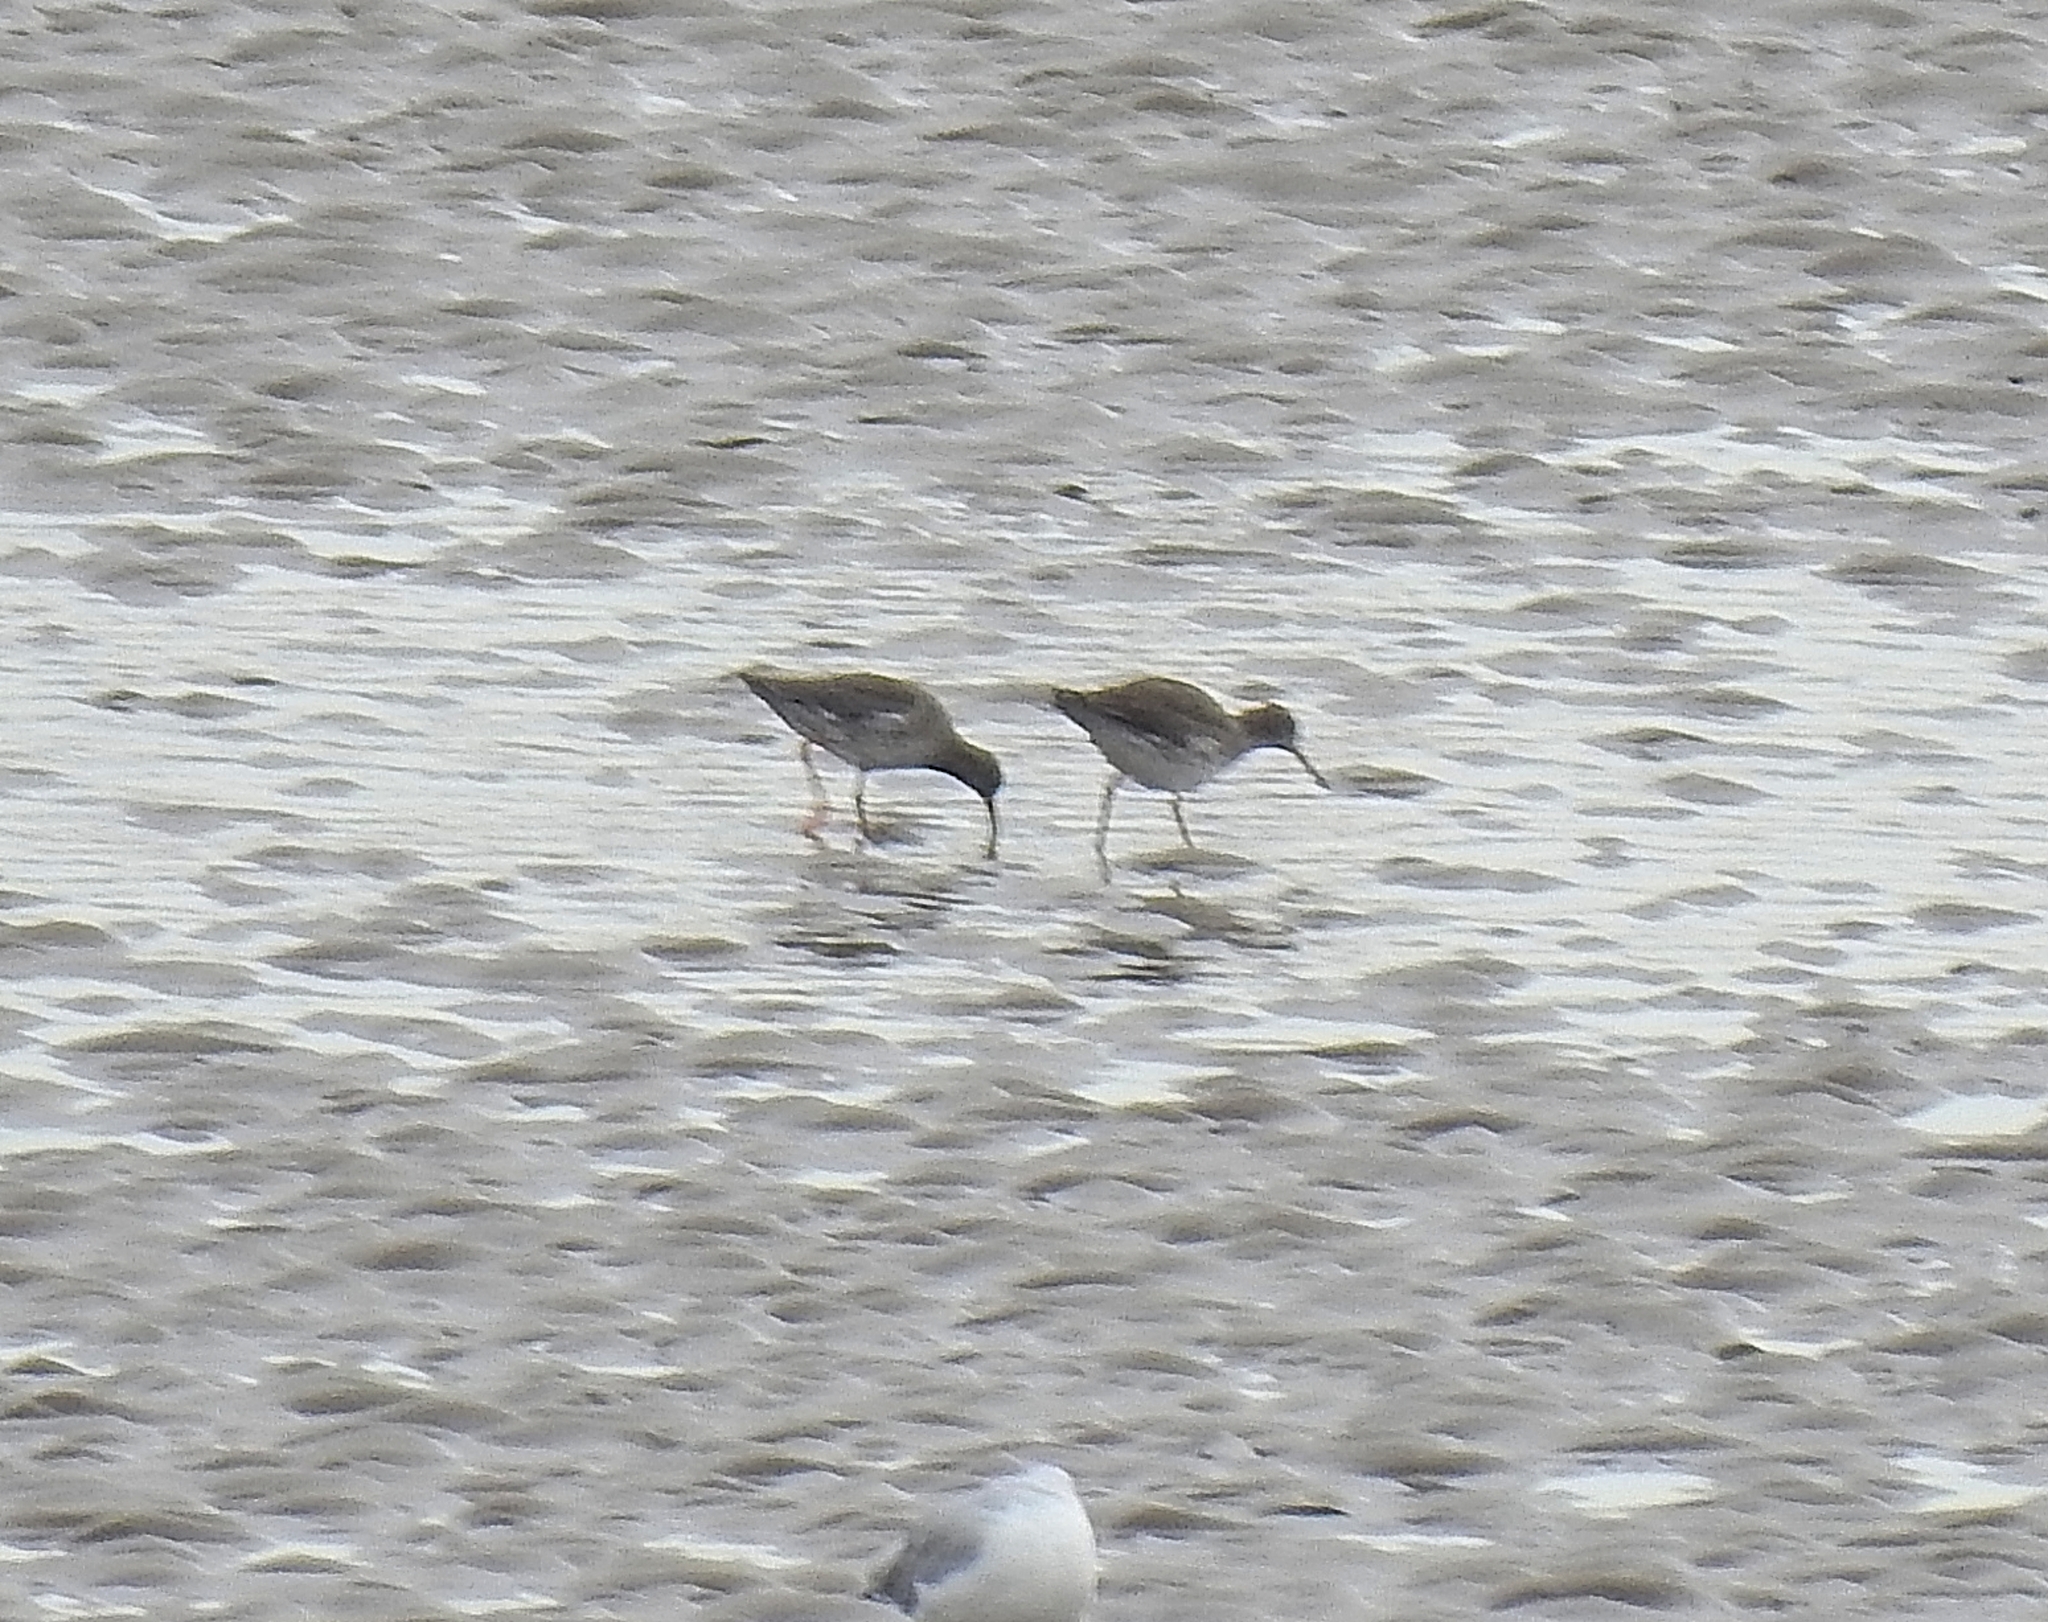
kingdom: Animalia
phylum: Chordata
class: Aves
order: Charadriiformes
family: Scolopacidae
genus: Tringa
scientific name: Tringa totanus
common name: Common redshank
